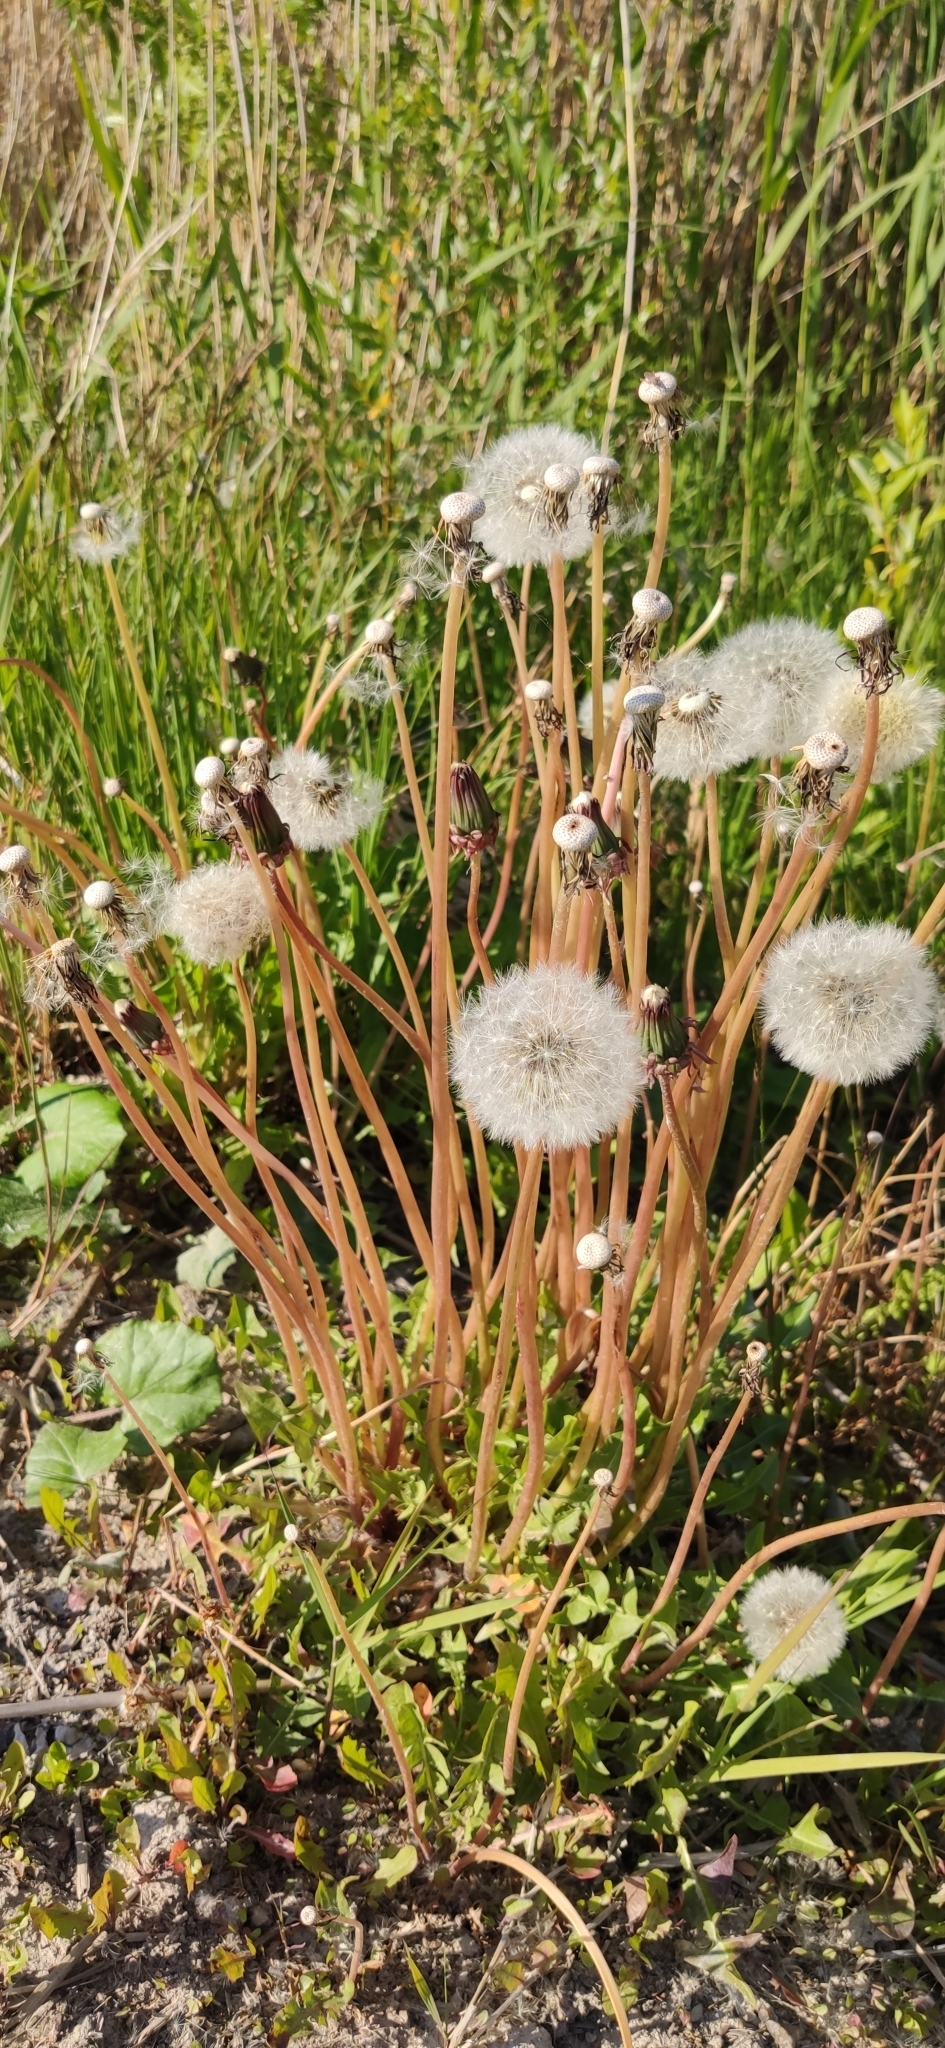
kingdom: Plantae
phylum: Tracheophyta
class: Magnoliopsida
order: Asterales
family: Asteraceae
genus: Taraxacum
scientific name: Taraxacum officinale
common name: Common dandelion
